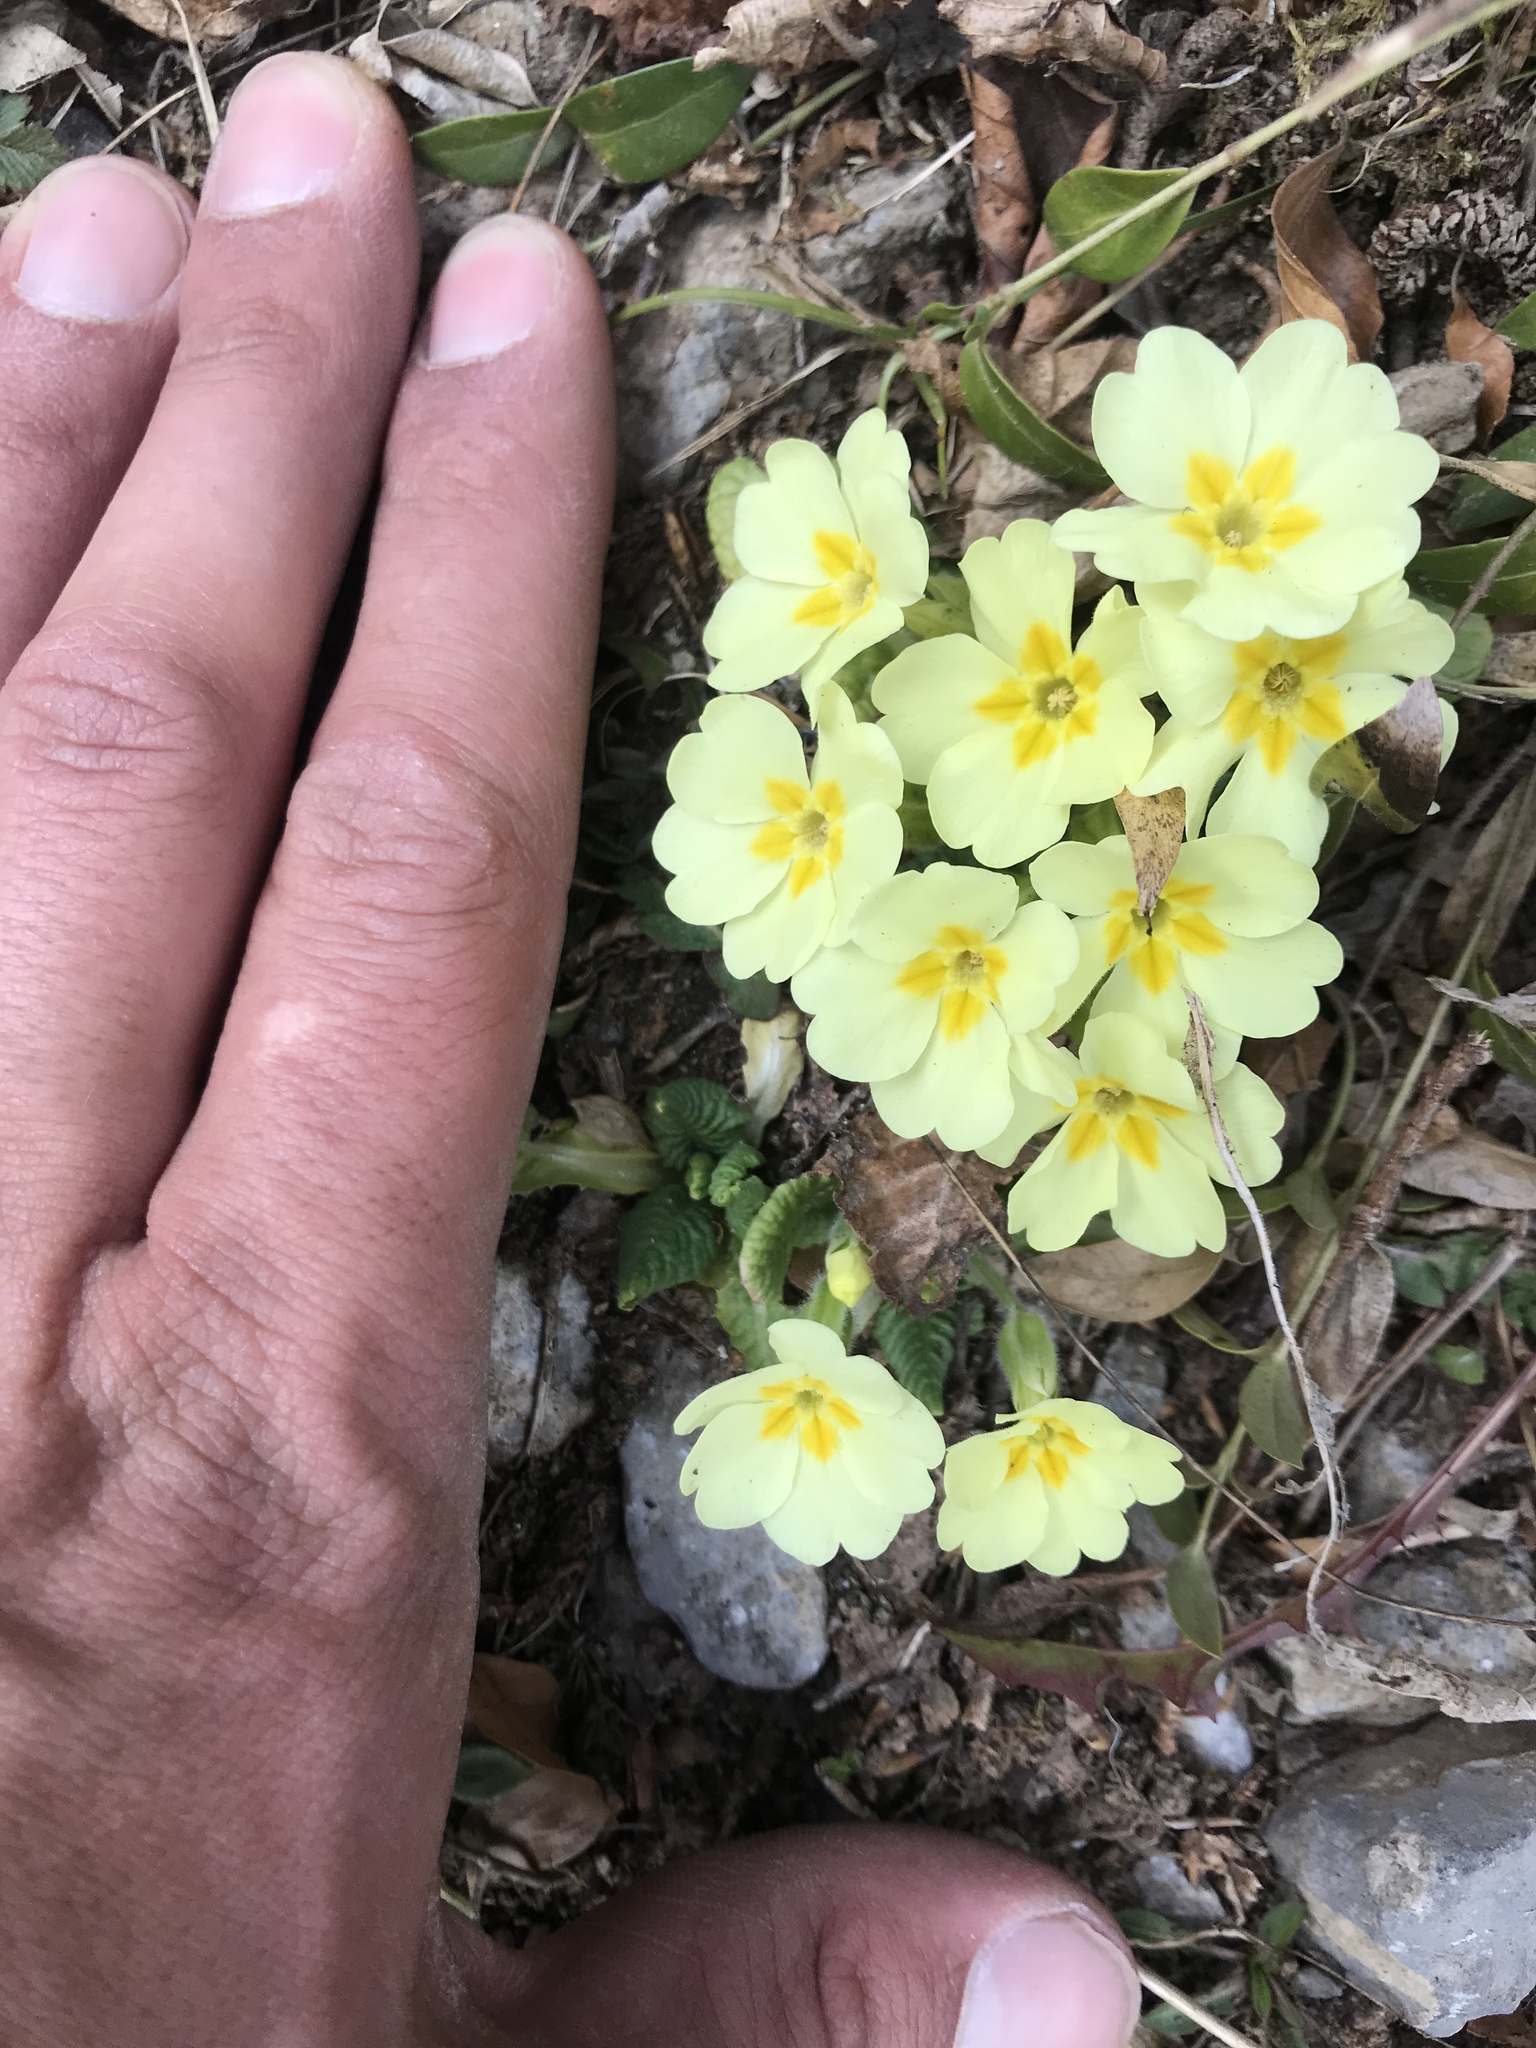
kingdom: Plantae
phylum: Tracheophyta
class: Magnoliopsida
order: Ericales
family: Primulaceae
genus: Primula
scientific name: Primula vulgaris
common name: Primrose
